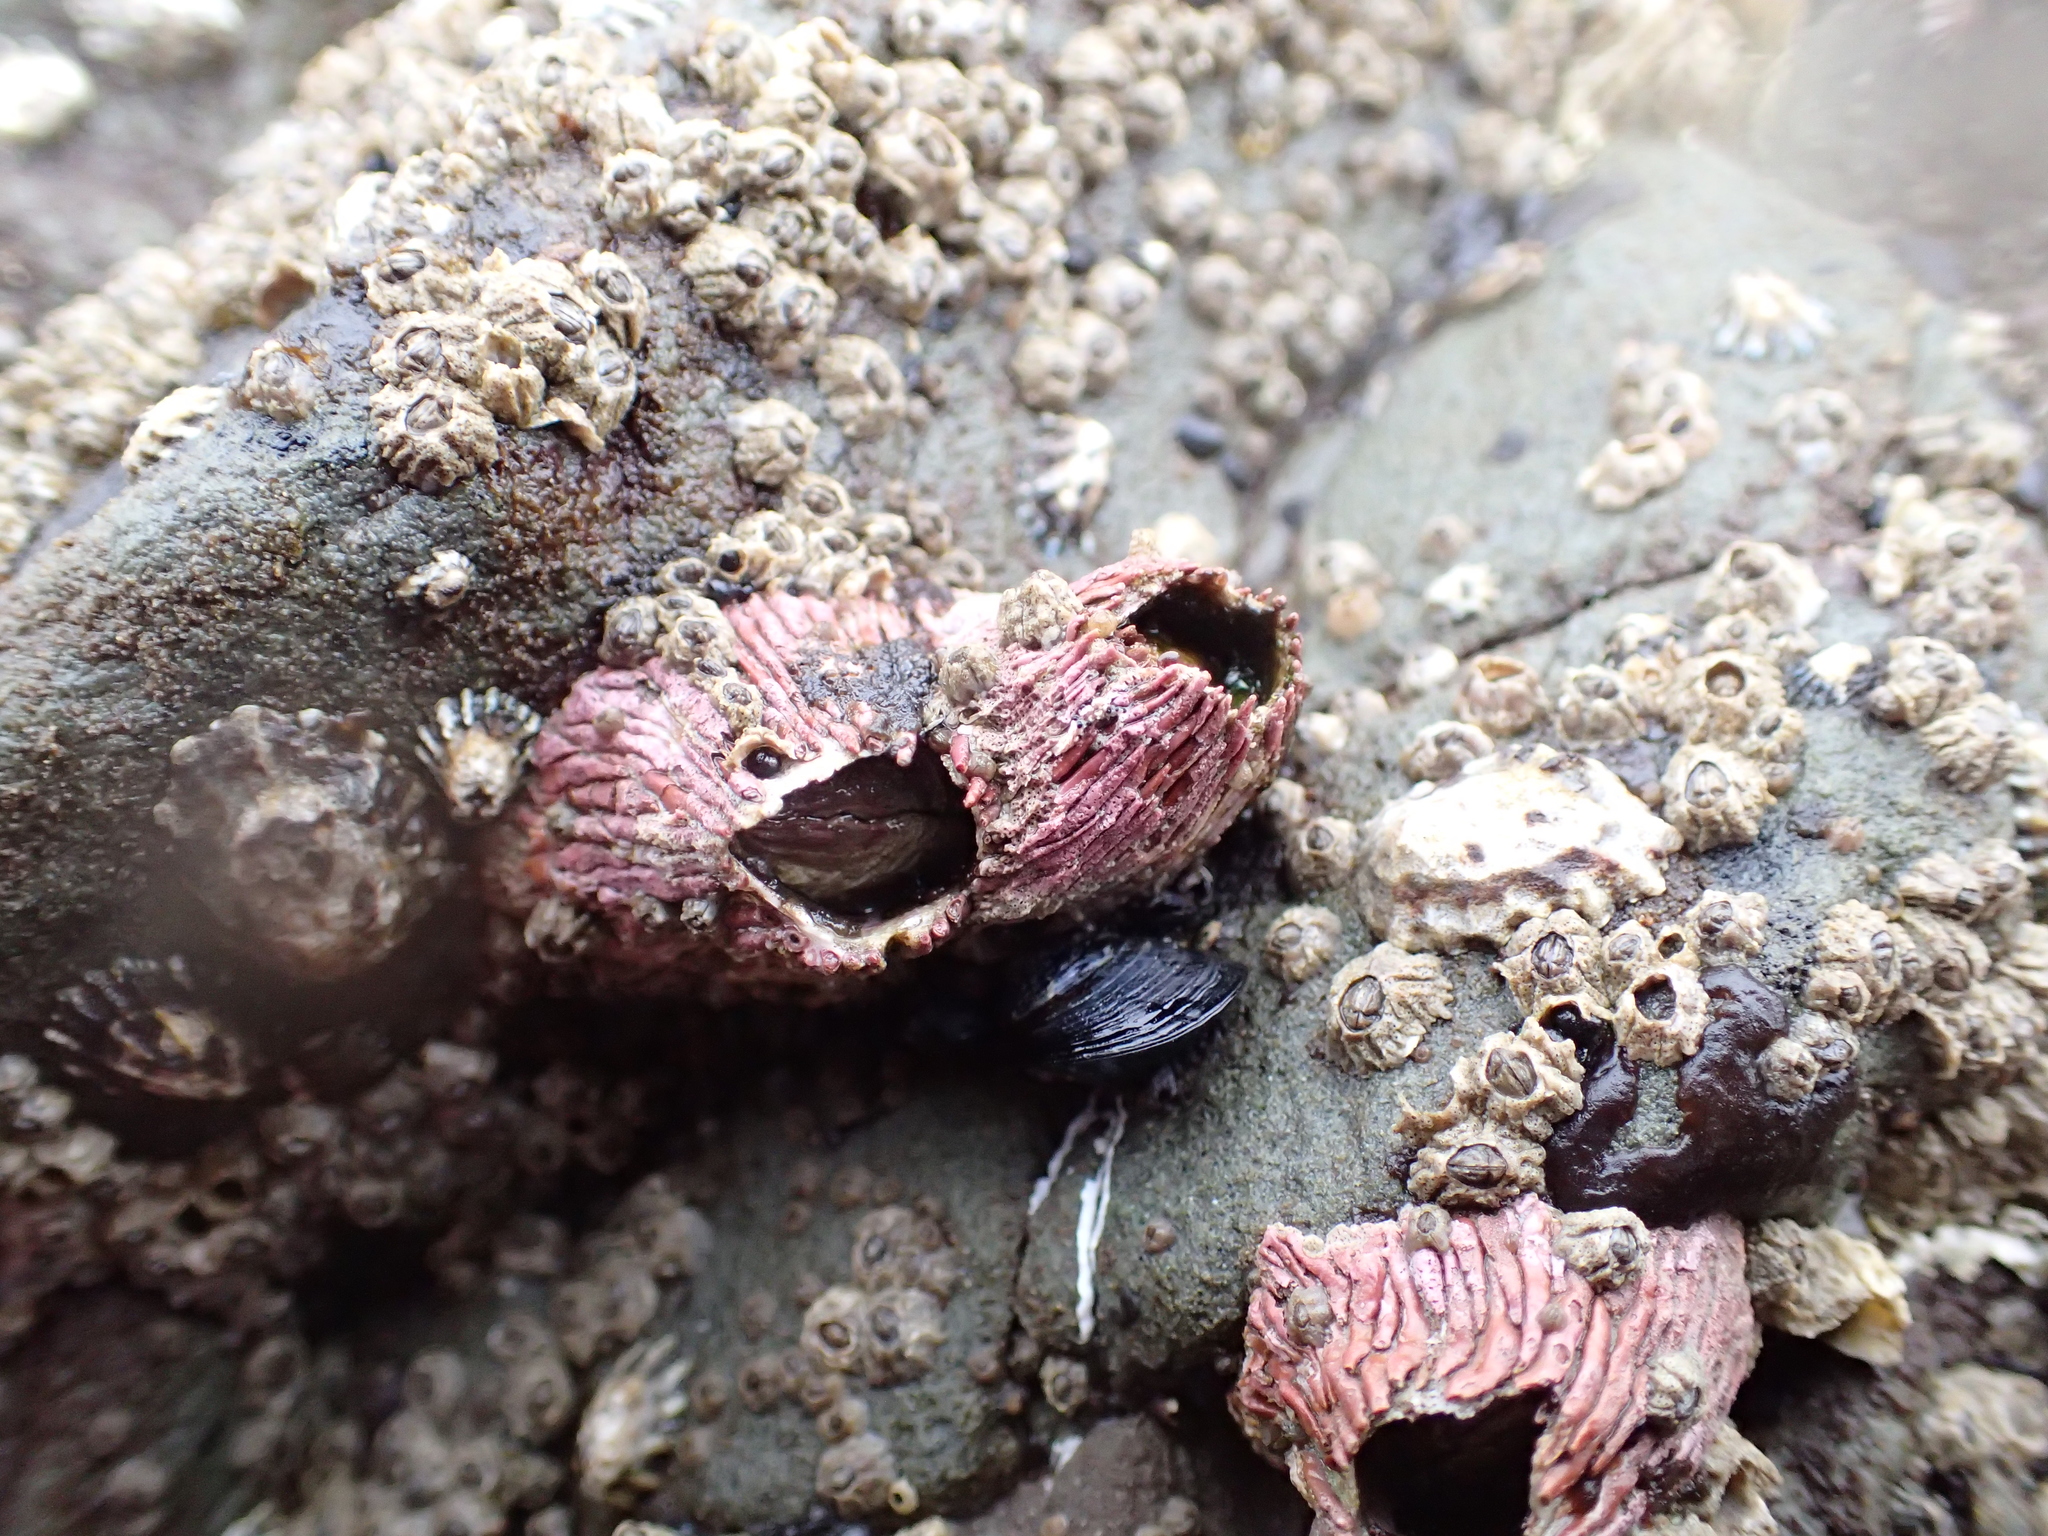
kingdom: Animalia
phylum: Arthropoda
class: Maxillopoda
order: Sessilia
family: Tetraclitidae
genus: Tetraclita
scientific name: Tetraclita rubescens
